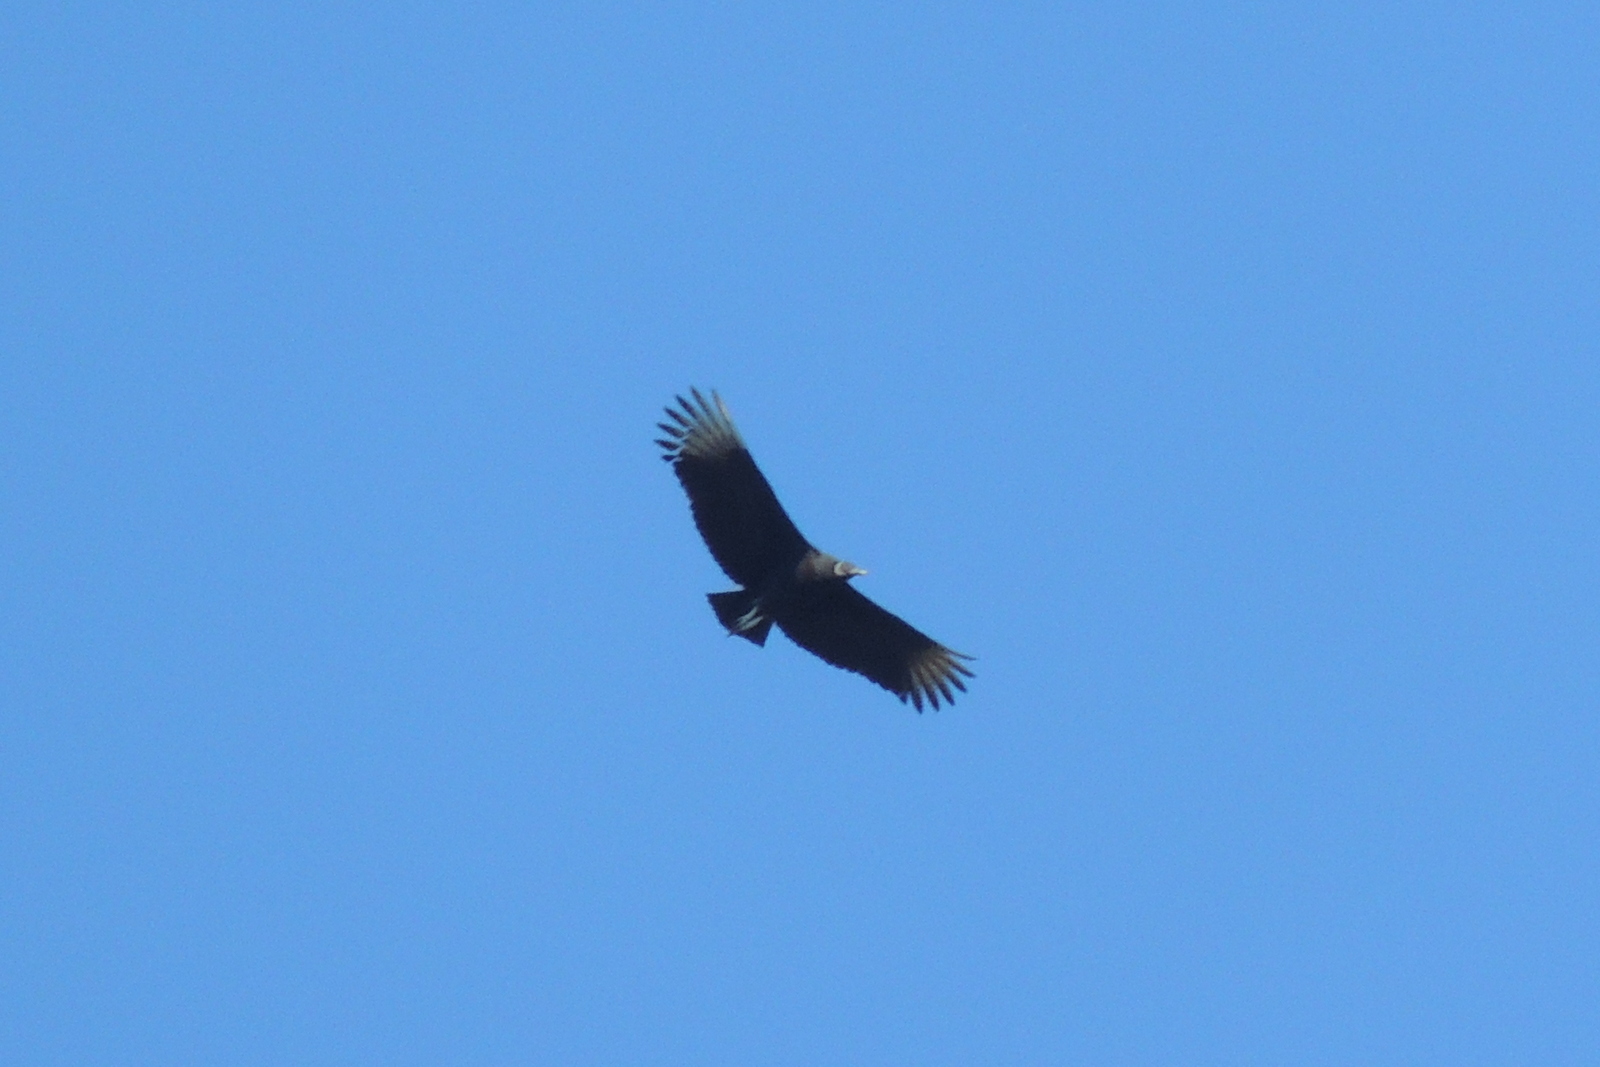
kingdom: Animalia
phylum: Chordata
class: Aves
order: Accipitriformes
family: Cathartidae
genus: Coragyps
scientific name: Coragyps atratus
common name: Black vulture
